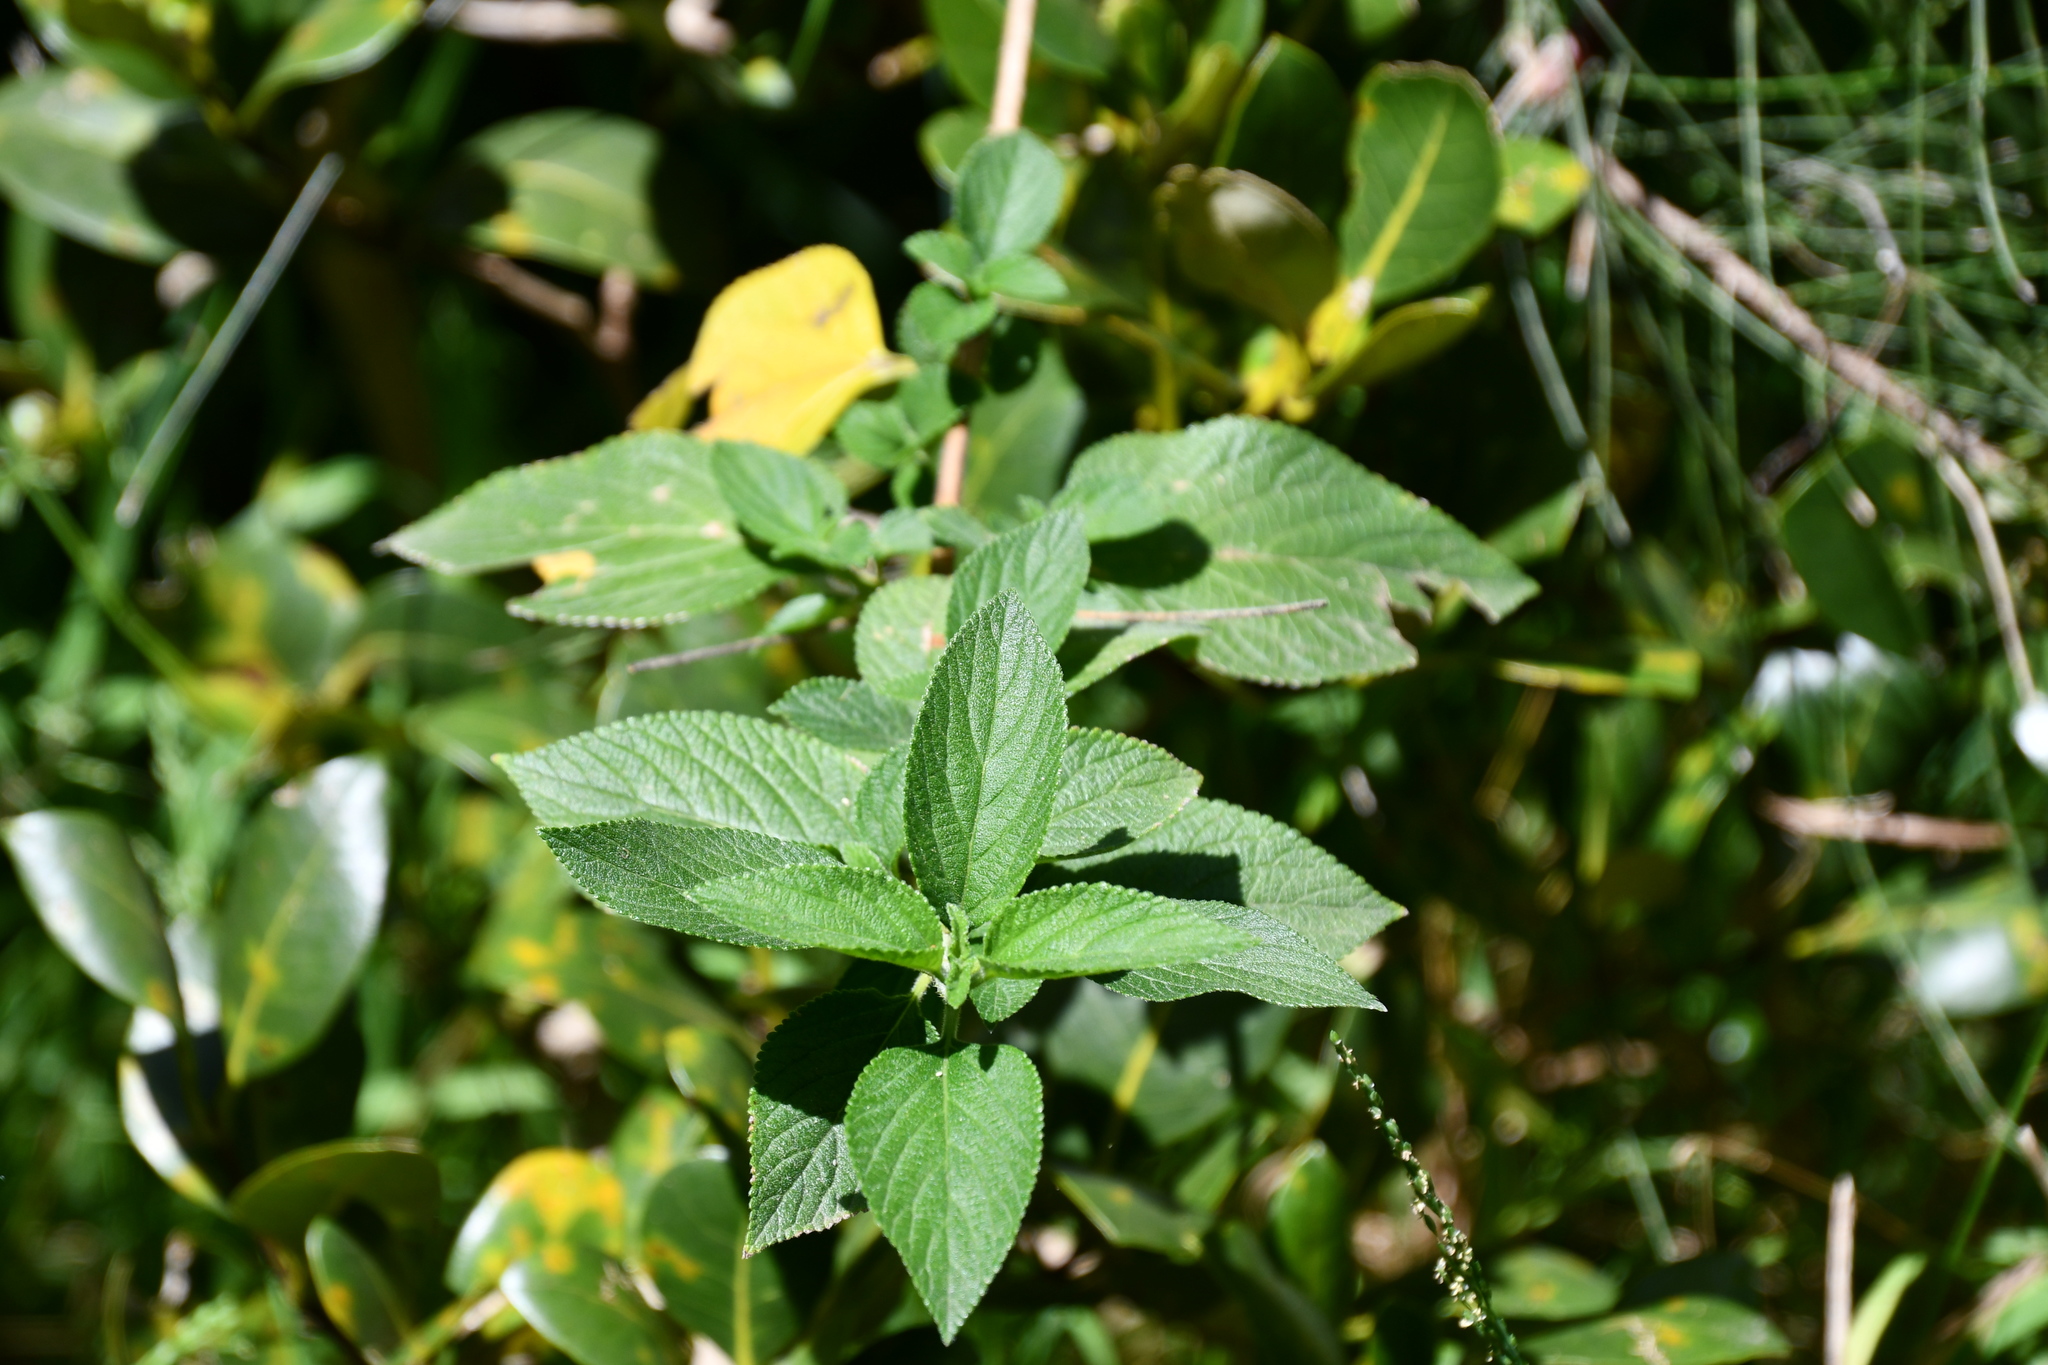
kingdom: Plantae
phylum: Tracheophyta
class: Magnoliopsida
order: Lamiales
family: Verbenaceae
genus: Lantana
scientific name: Lantana camara
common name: Lantana
